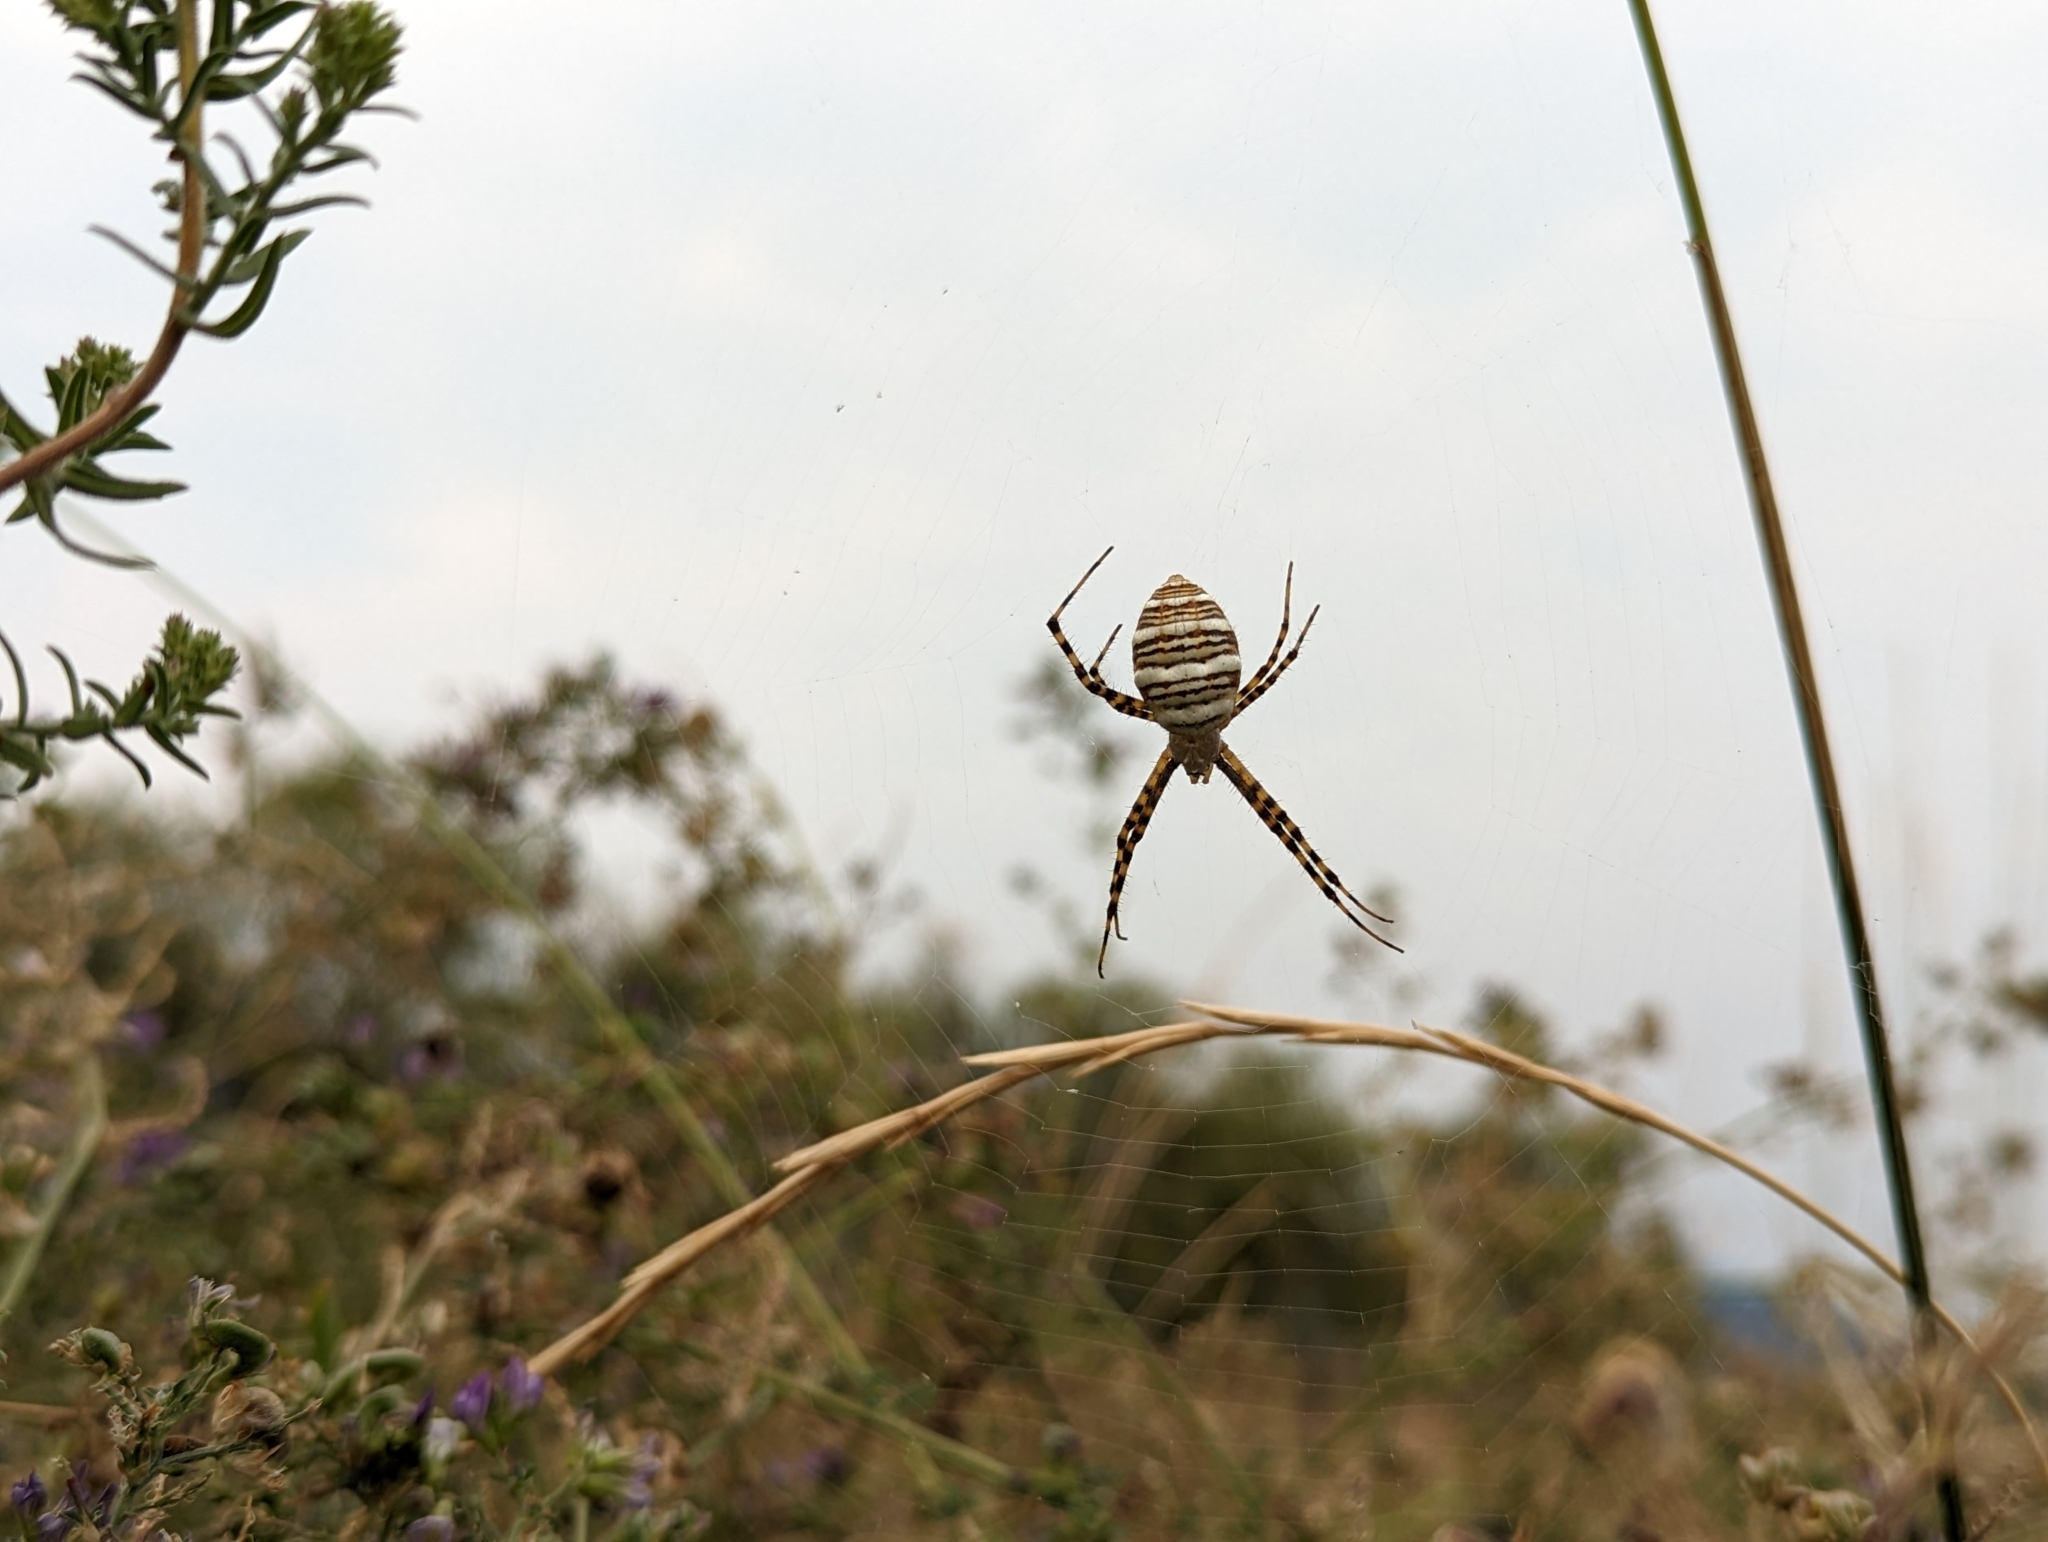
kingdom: Animalia
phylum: Arthropoda
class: Arachnida
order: Araneae
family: Araneidae
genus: Argiope
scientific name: Argiope trifasciata
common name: Banded garden spider
